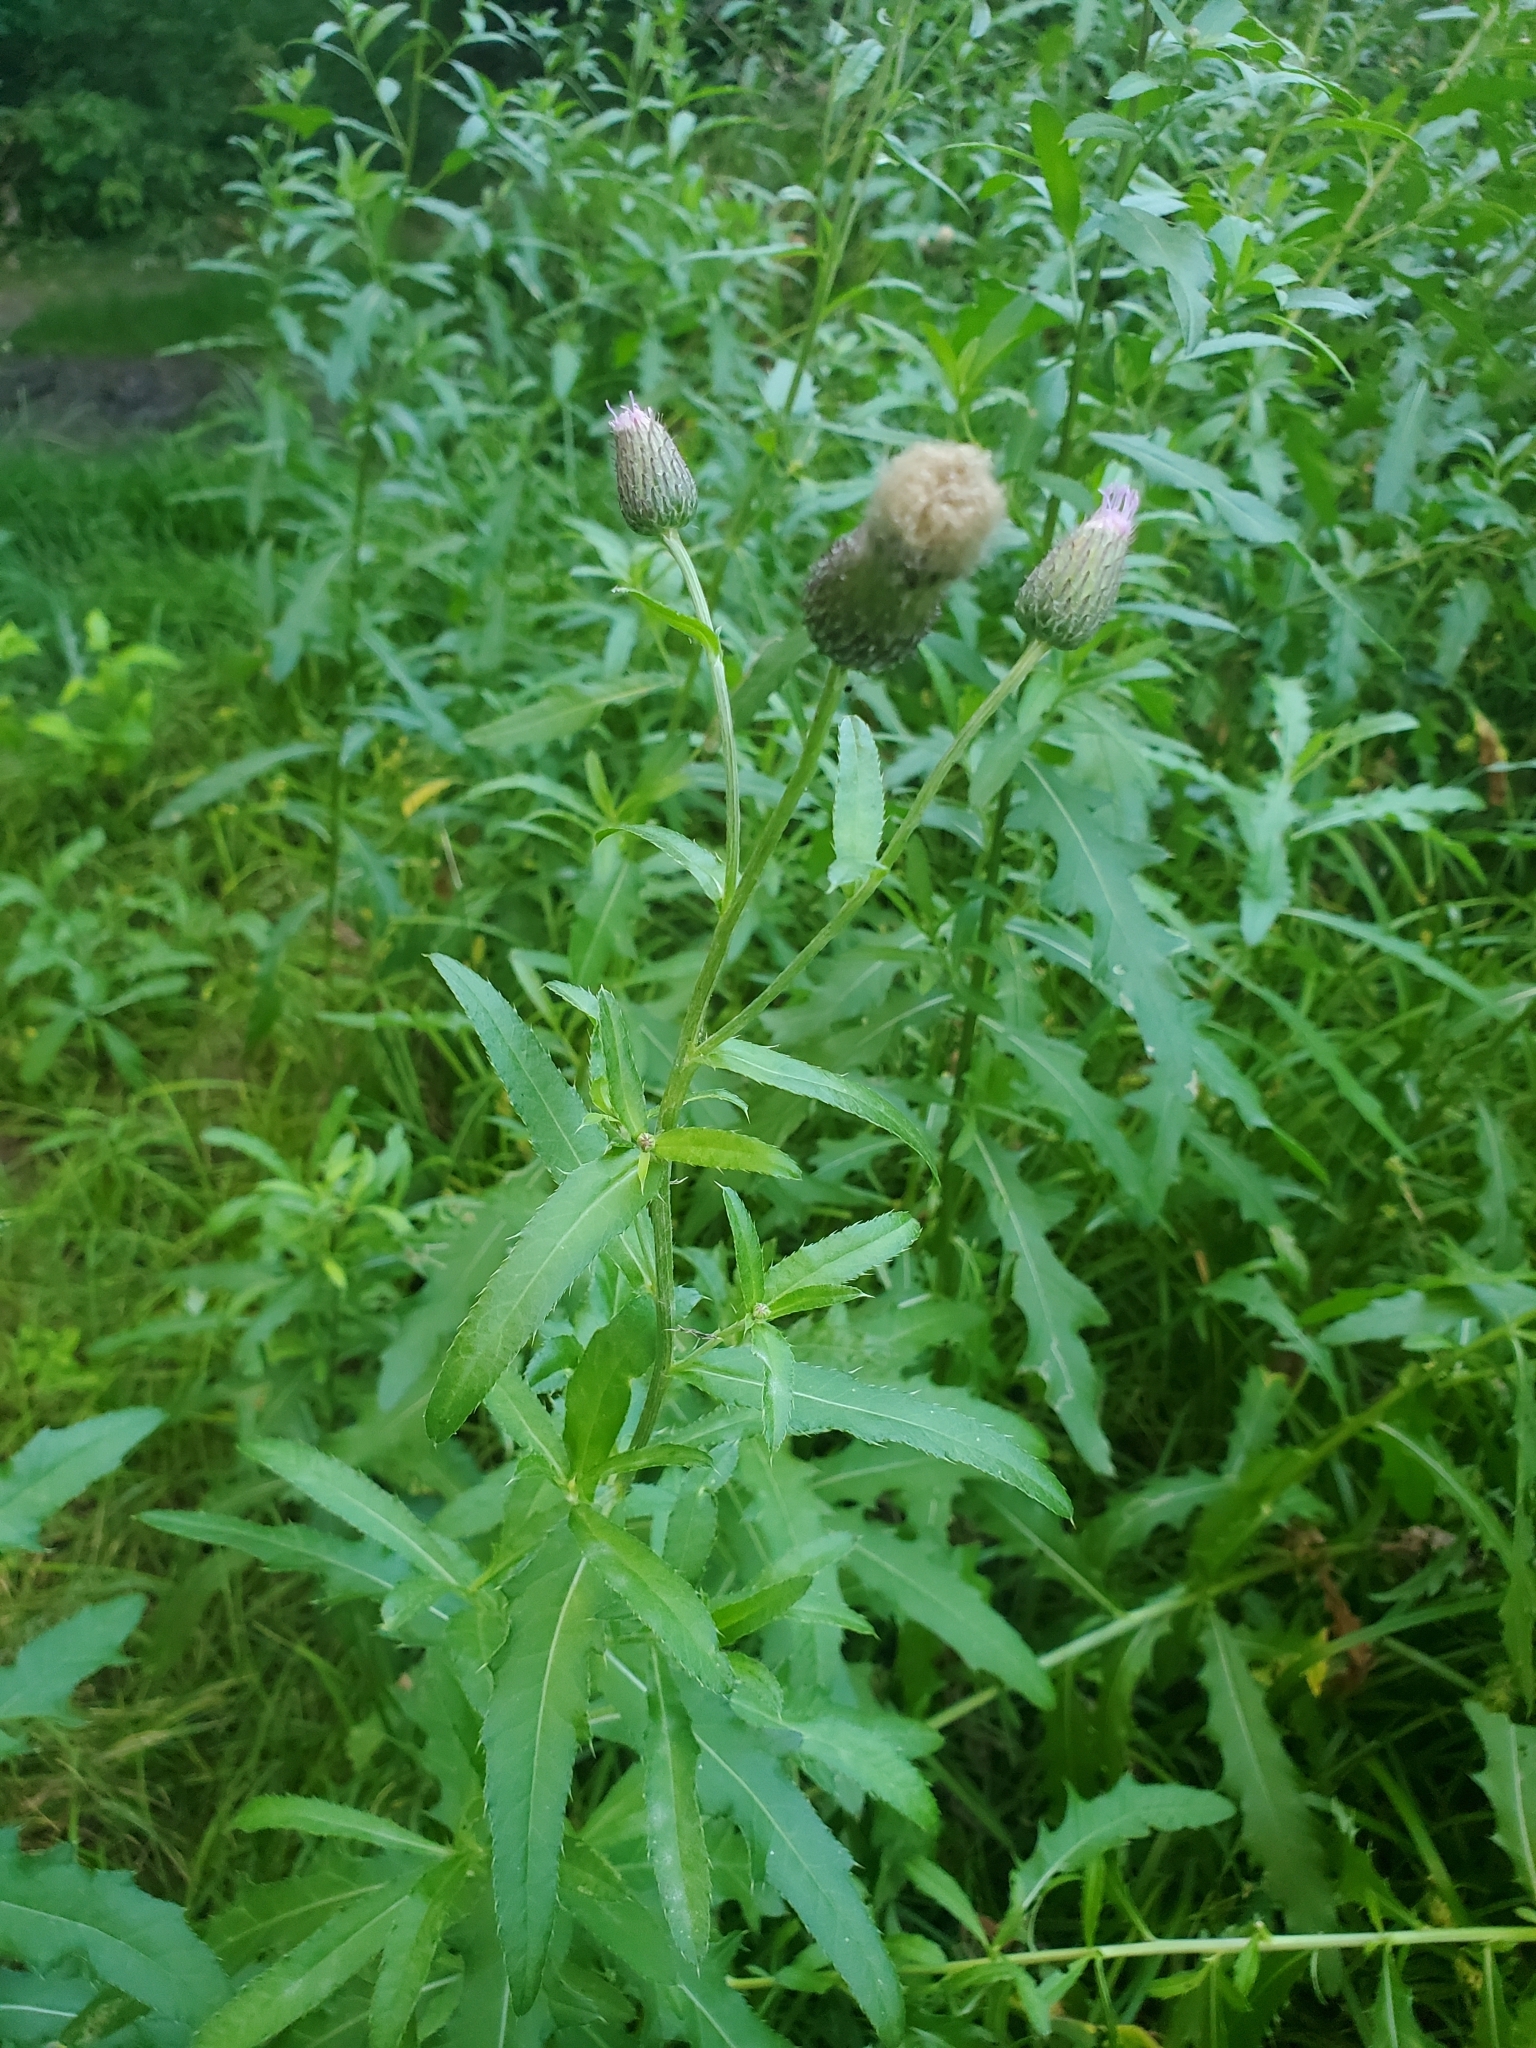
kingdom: Plantae
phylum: Tracheophyta
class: Magnoliopsida
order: Asterales
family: Asteraceae
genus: Cirsium
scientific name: Cirsium arvense
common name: Creeping thistle
